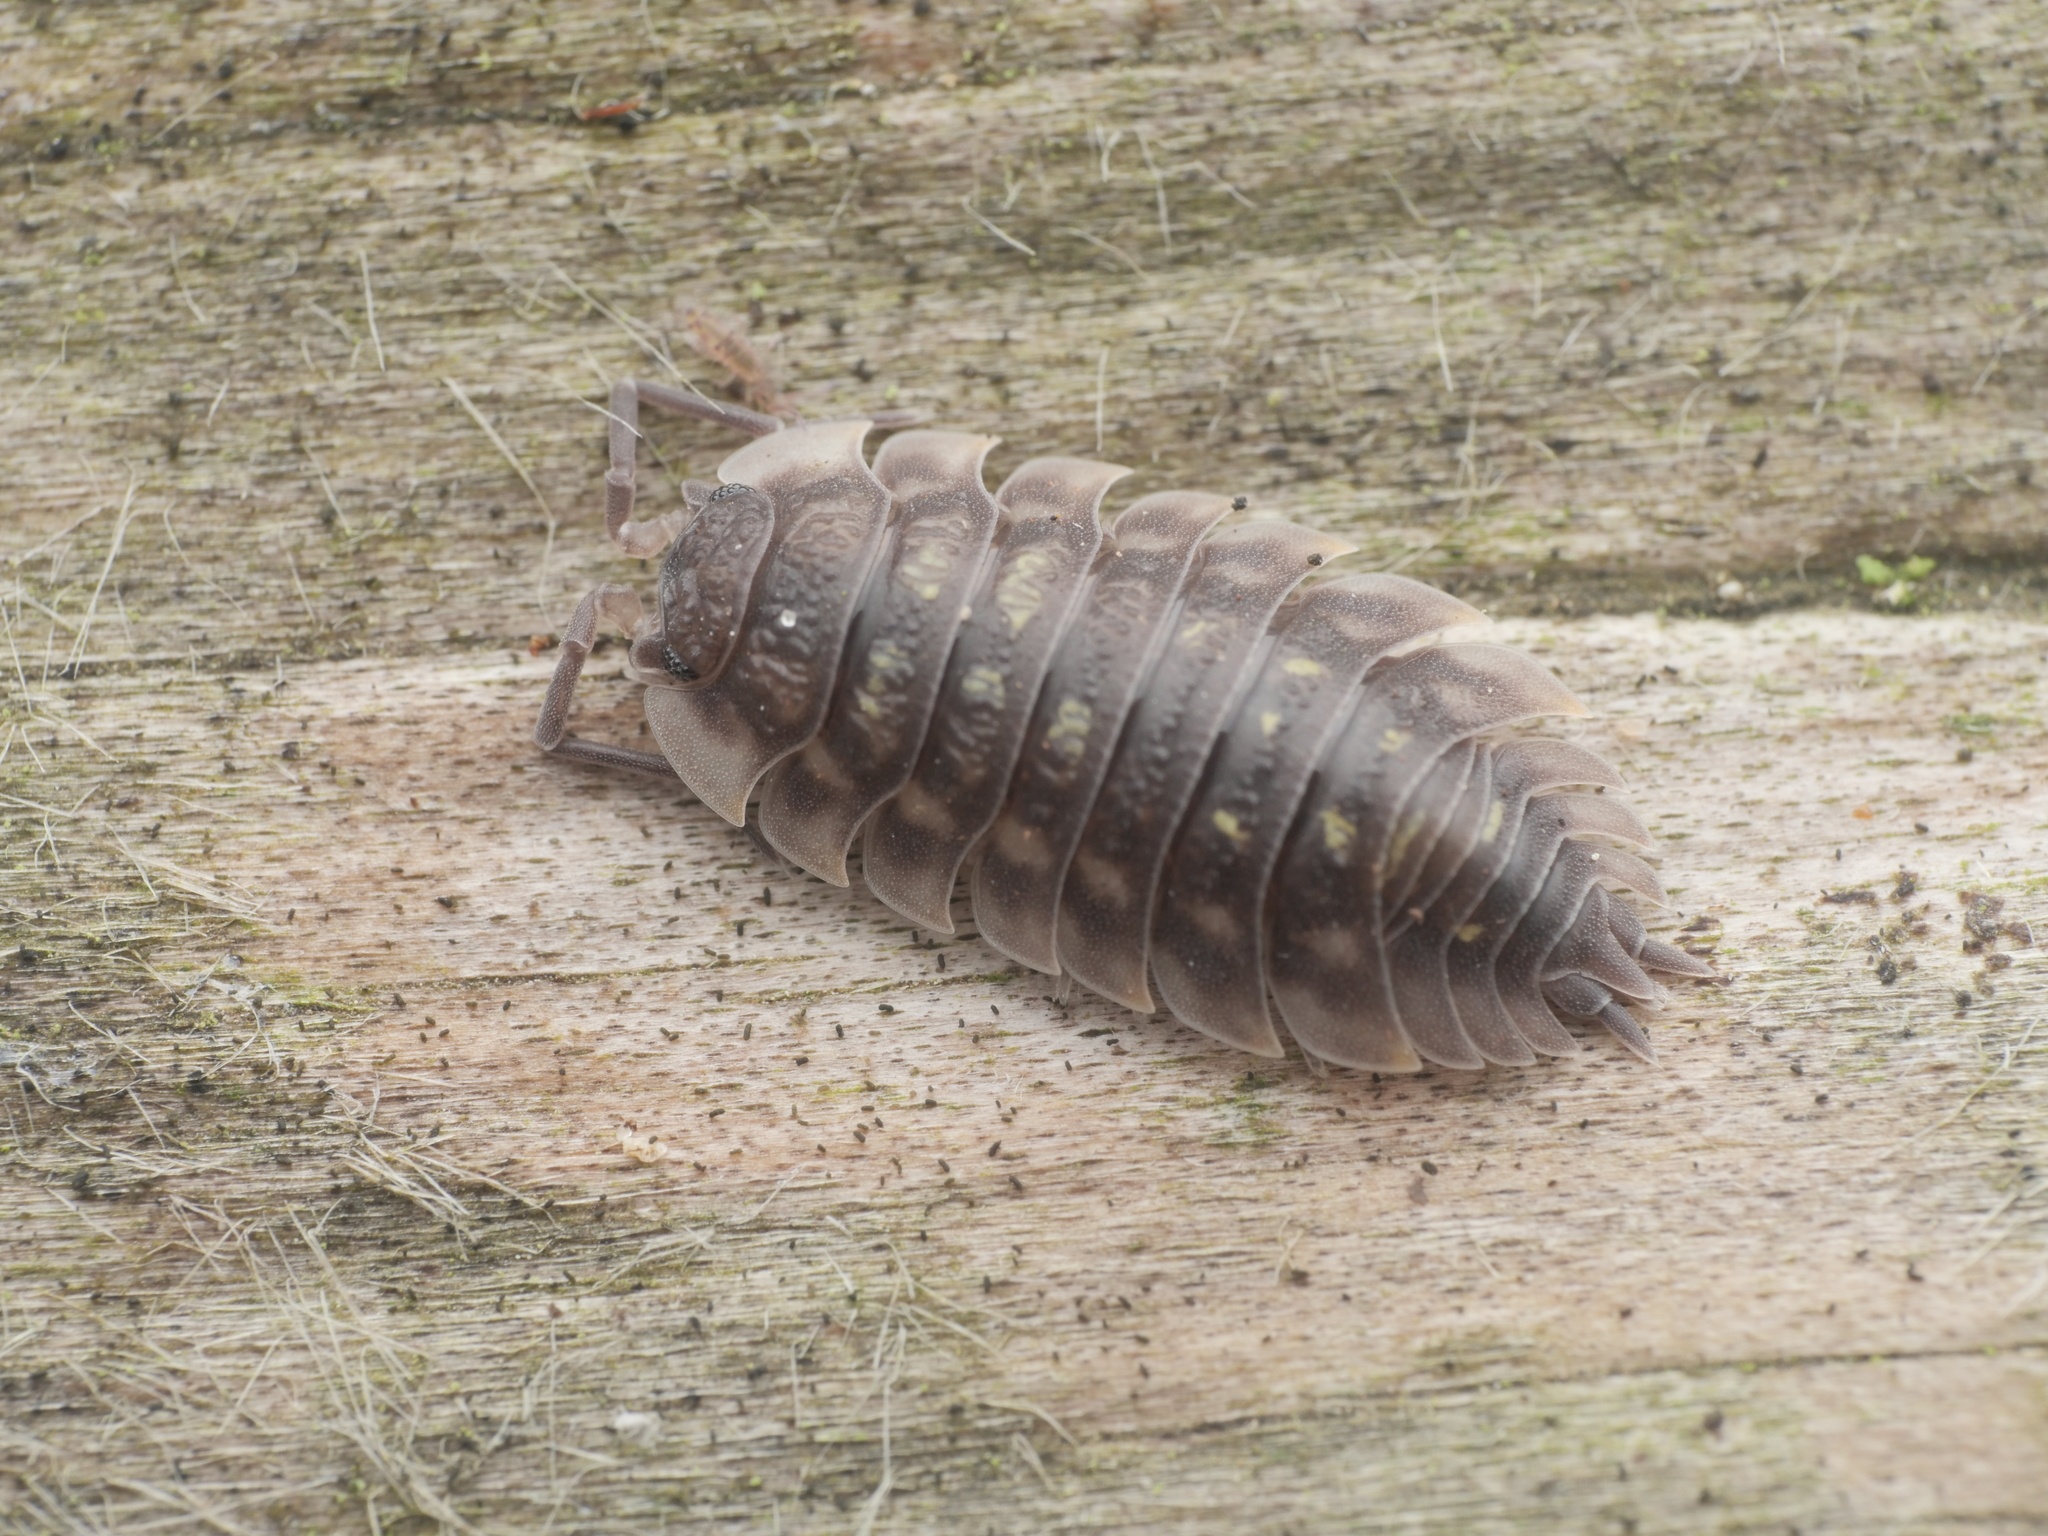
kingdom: Animalia
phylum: Arthropoda
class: Malacostraca
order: Isopoda
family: Oniscidae
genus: Oniscus
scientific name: Oniscus asellus
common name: Common shiny woodlouse
